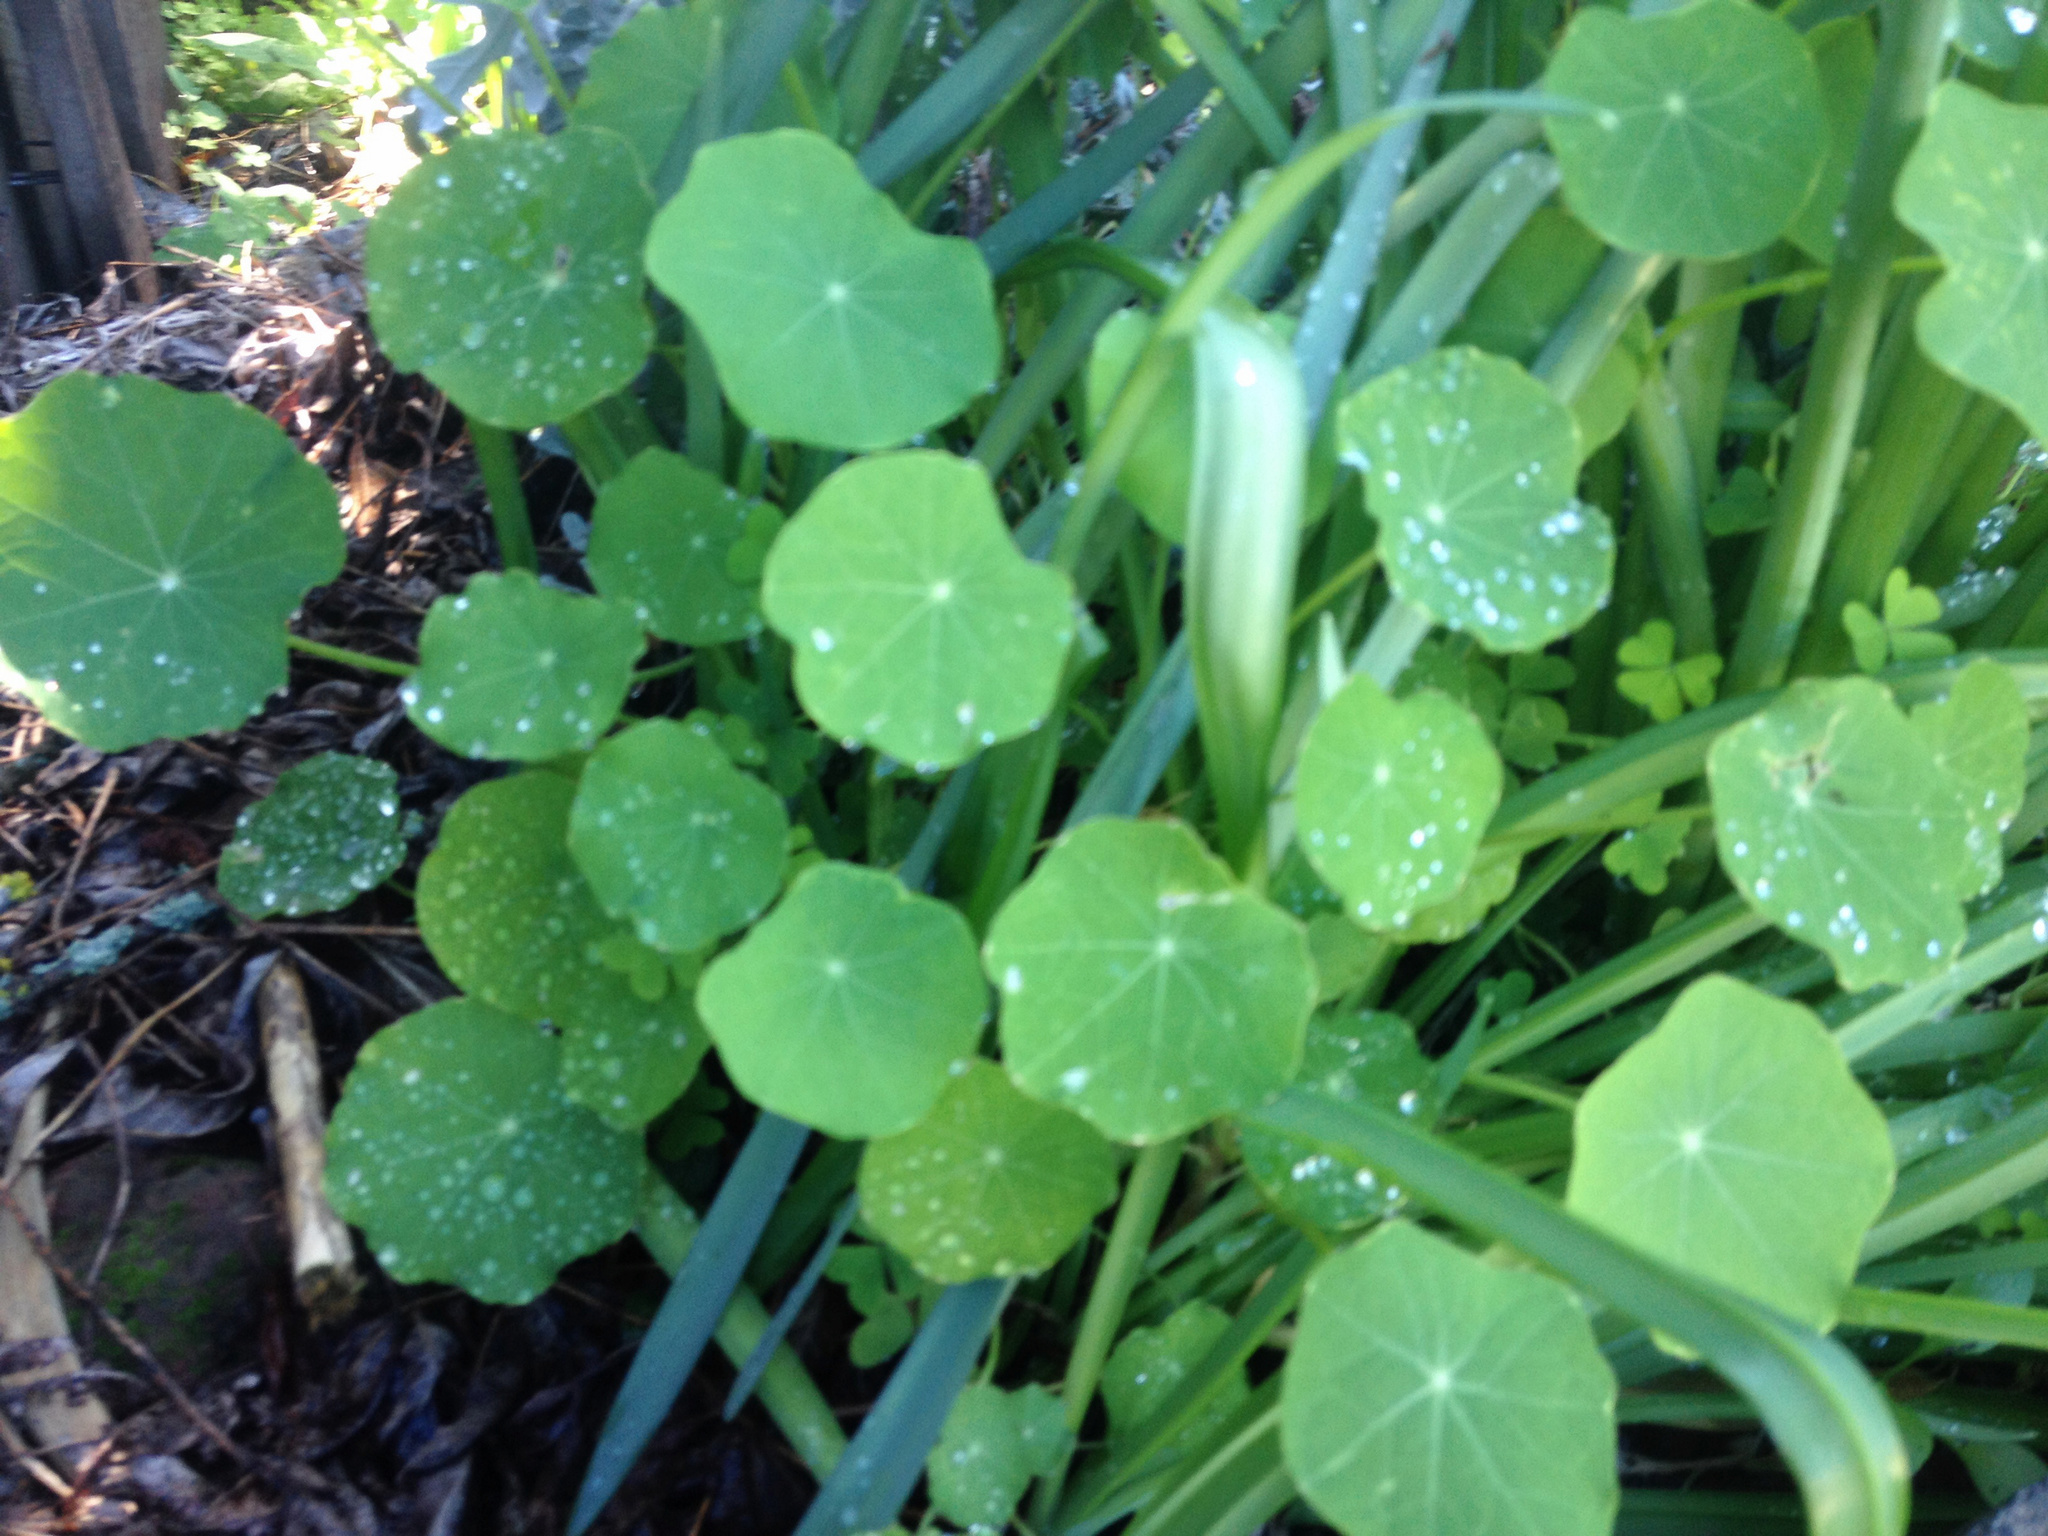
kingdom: Plantae
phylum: Tracheophyta
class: Magnoliopsida
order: Brassicales
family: Tropaeolaceae
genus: Tropaeolum
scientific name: Tropaeolum majus
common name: Nasturtium
